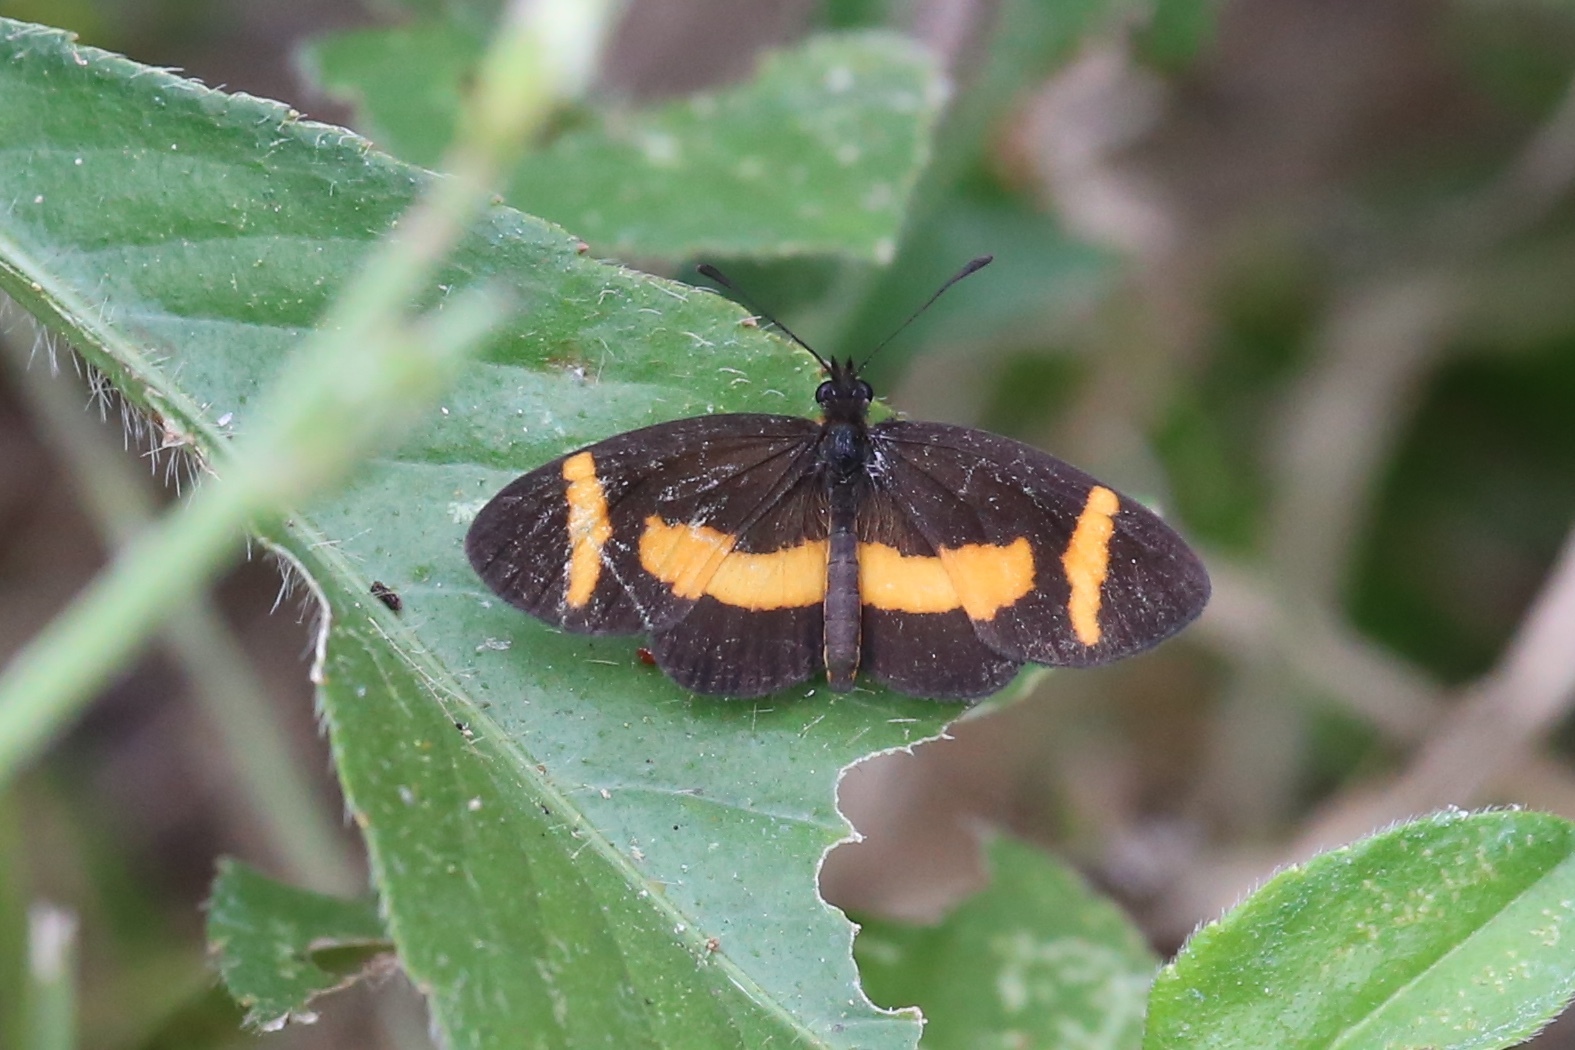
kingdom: Animalia
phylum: Arthropoda
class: Insecta
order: Lepidoptera
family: Nymphalidae
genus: Microtia
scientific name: Microtia elva
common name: Elf
